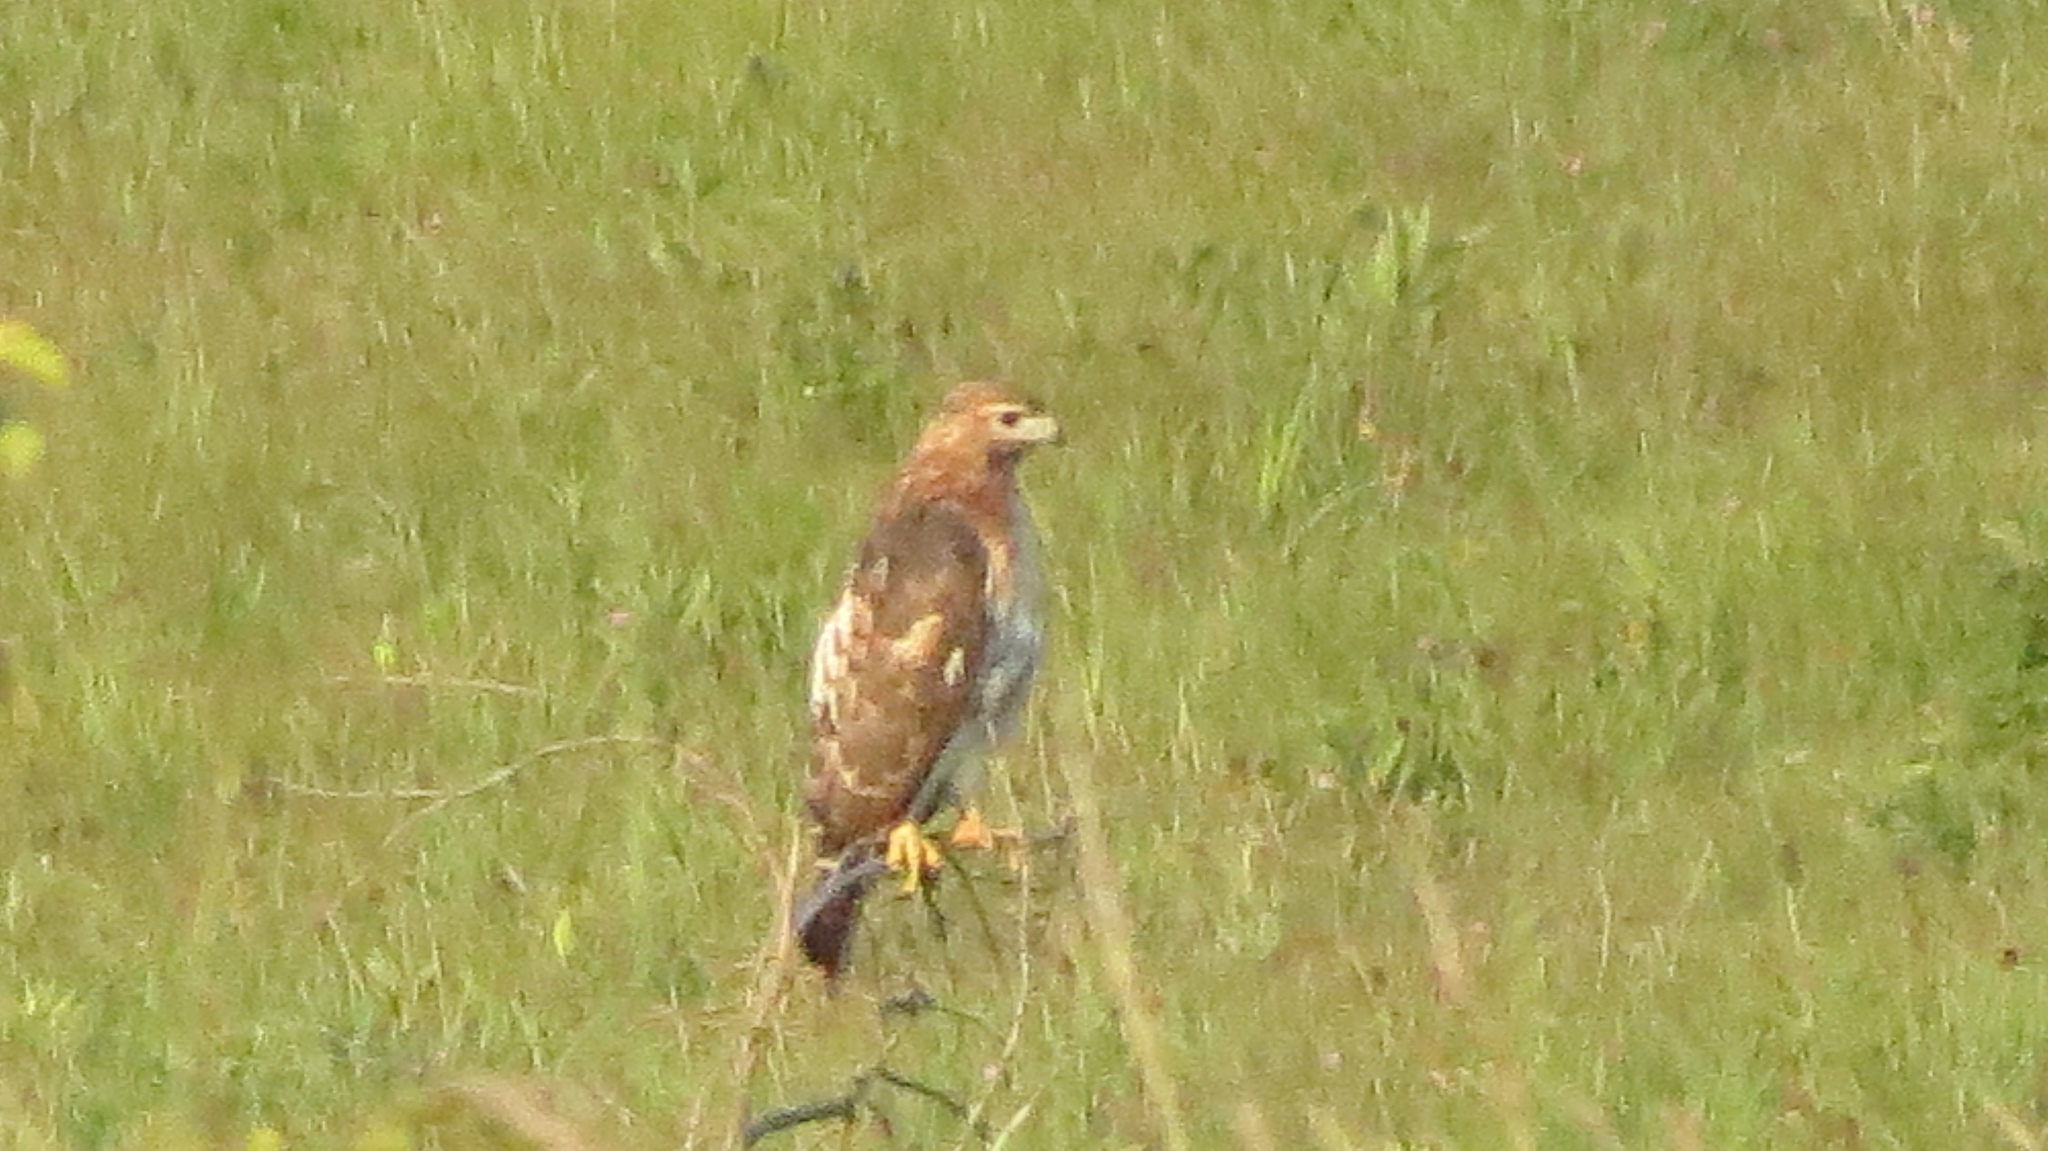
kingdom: Animalia
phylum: Chordata
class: Aves
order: Accipitriformes
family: Accipitridae
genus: Buteo
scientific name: Buteo jamaicensis
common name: Red-tailed hawk
